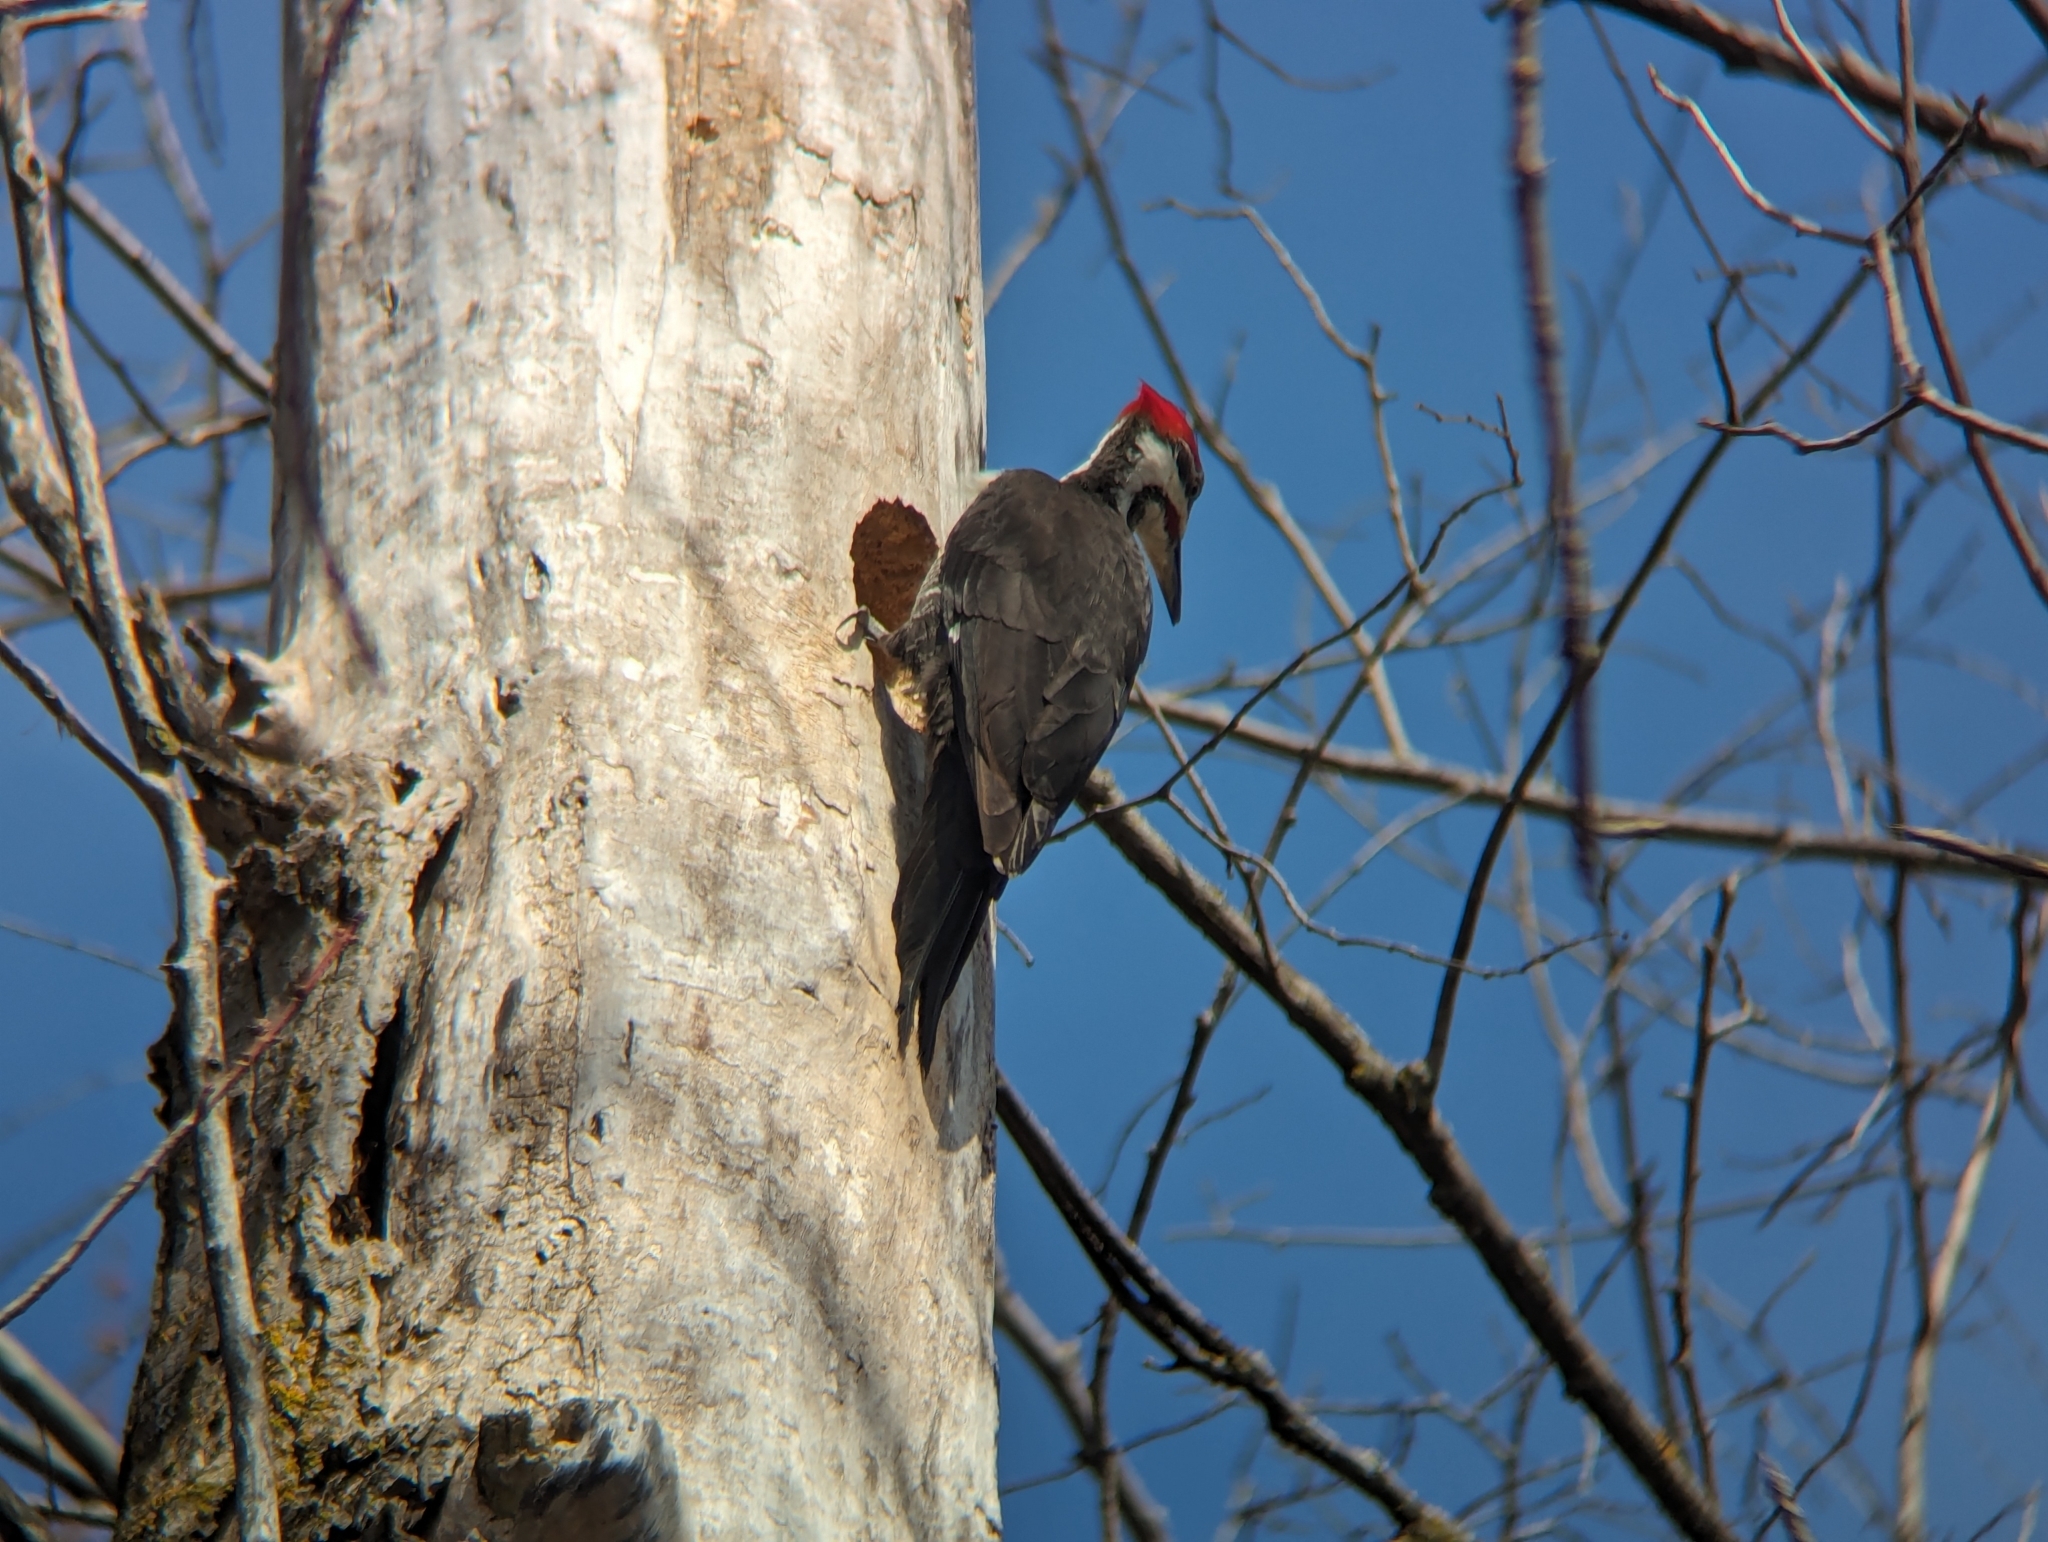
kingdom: Animalia
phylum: Chordata
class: Aves
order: Piciformes
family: Picidae
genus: Dryocopus
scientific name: Dryocopus pileatus
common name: Pileated woodpecker
